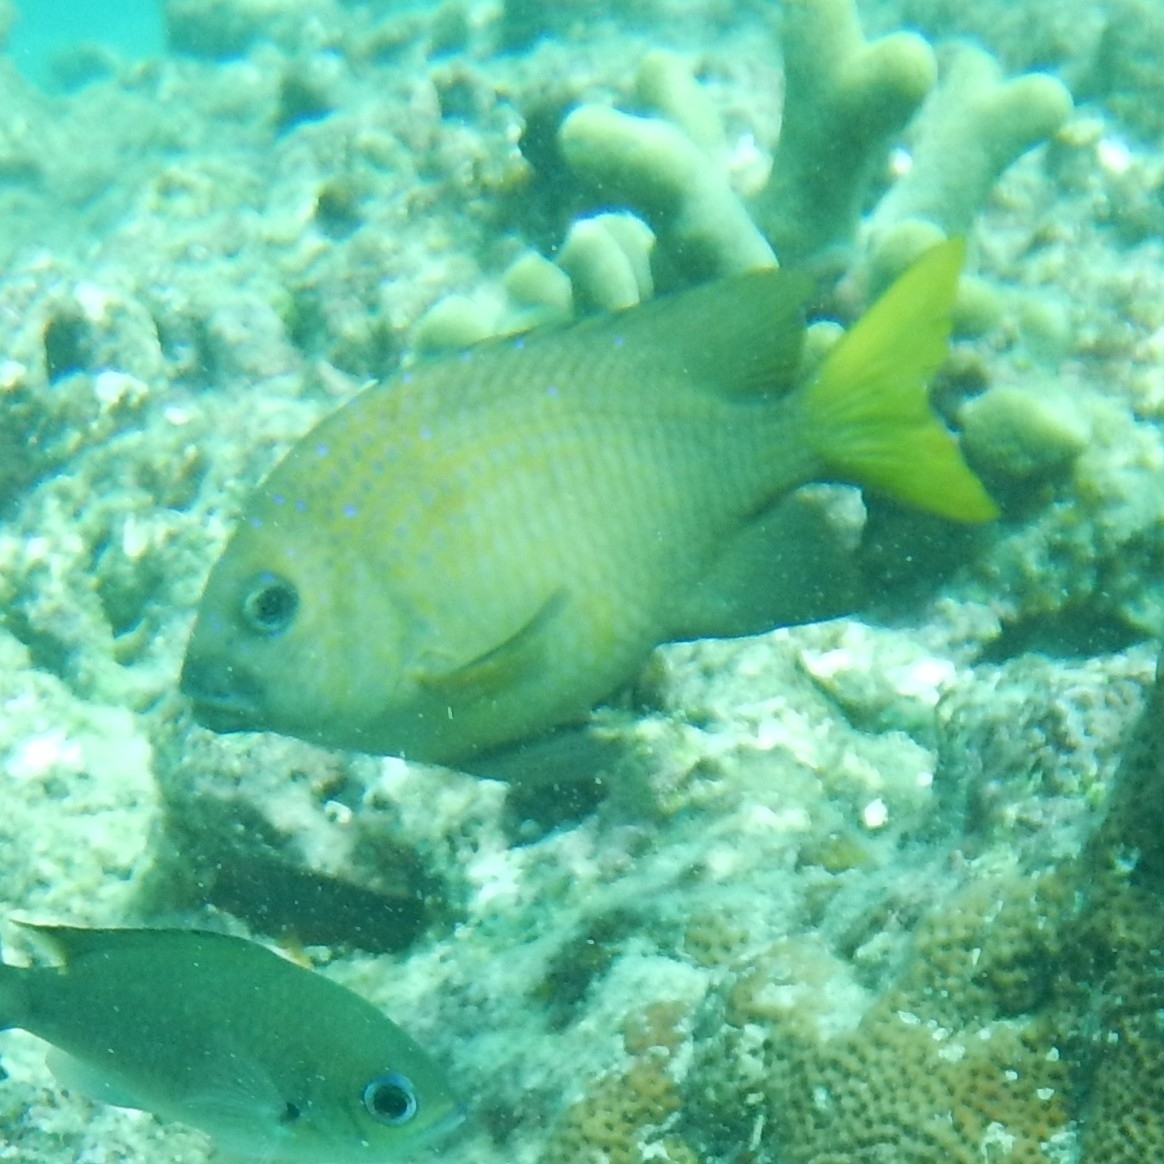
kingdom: Animalia
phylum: Chordata
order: Perciformes
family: Pomacentridae
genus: Microspathodon
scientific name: Microspathodon chrysurus
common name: Yellowtail damselfish
